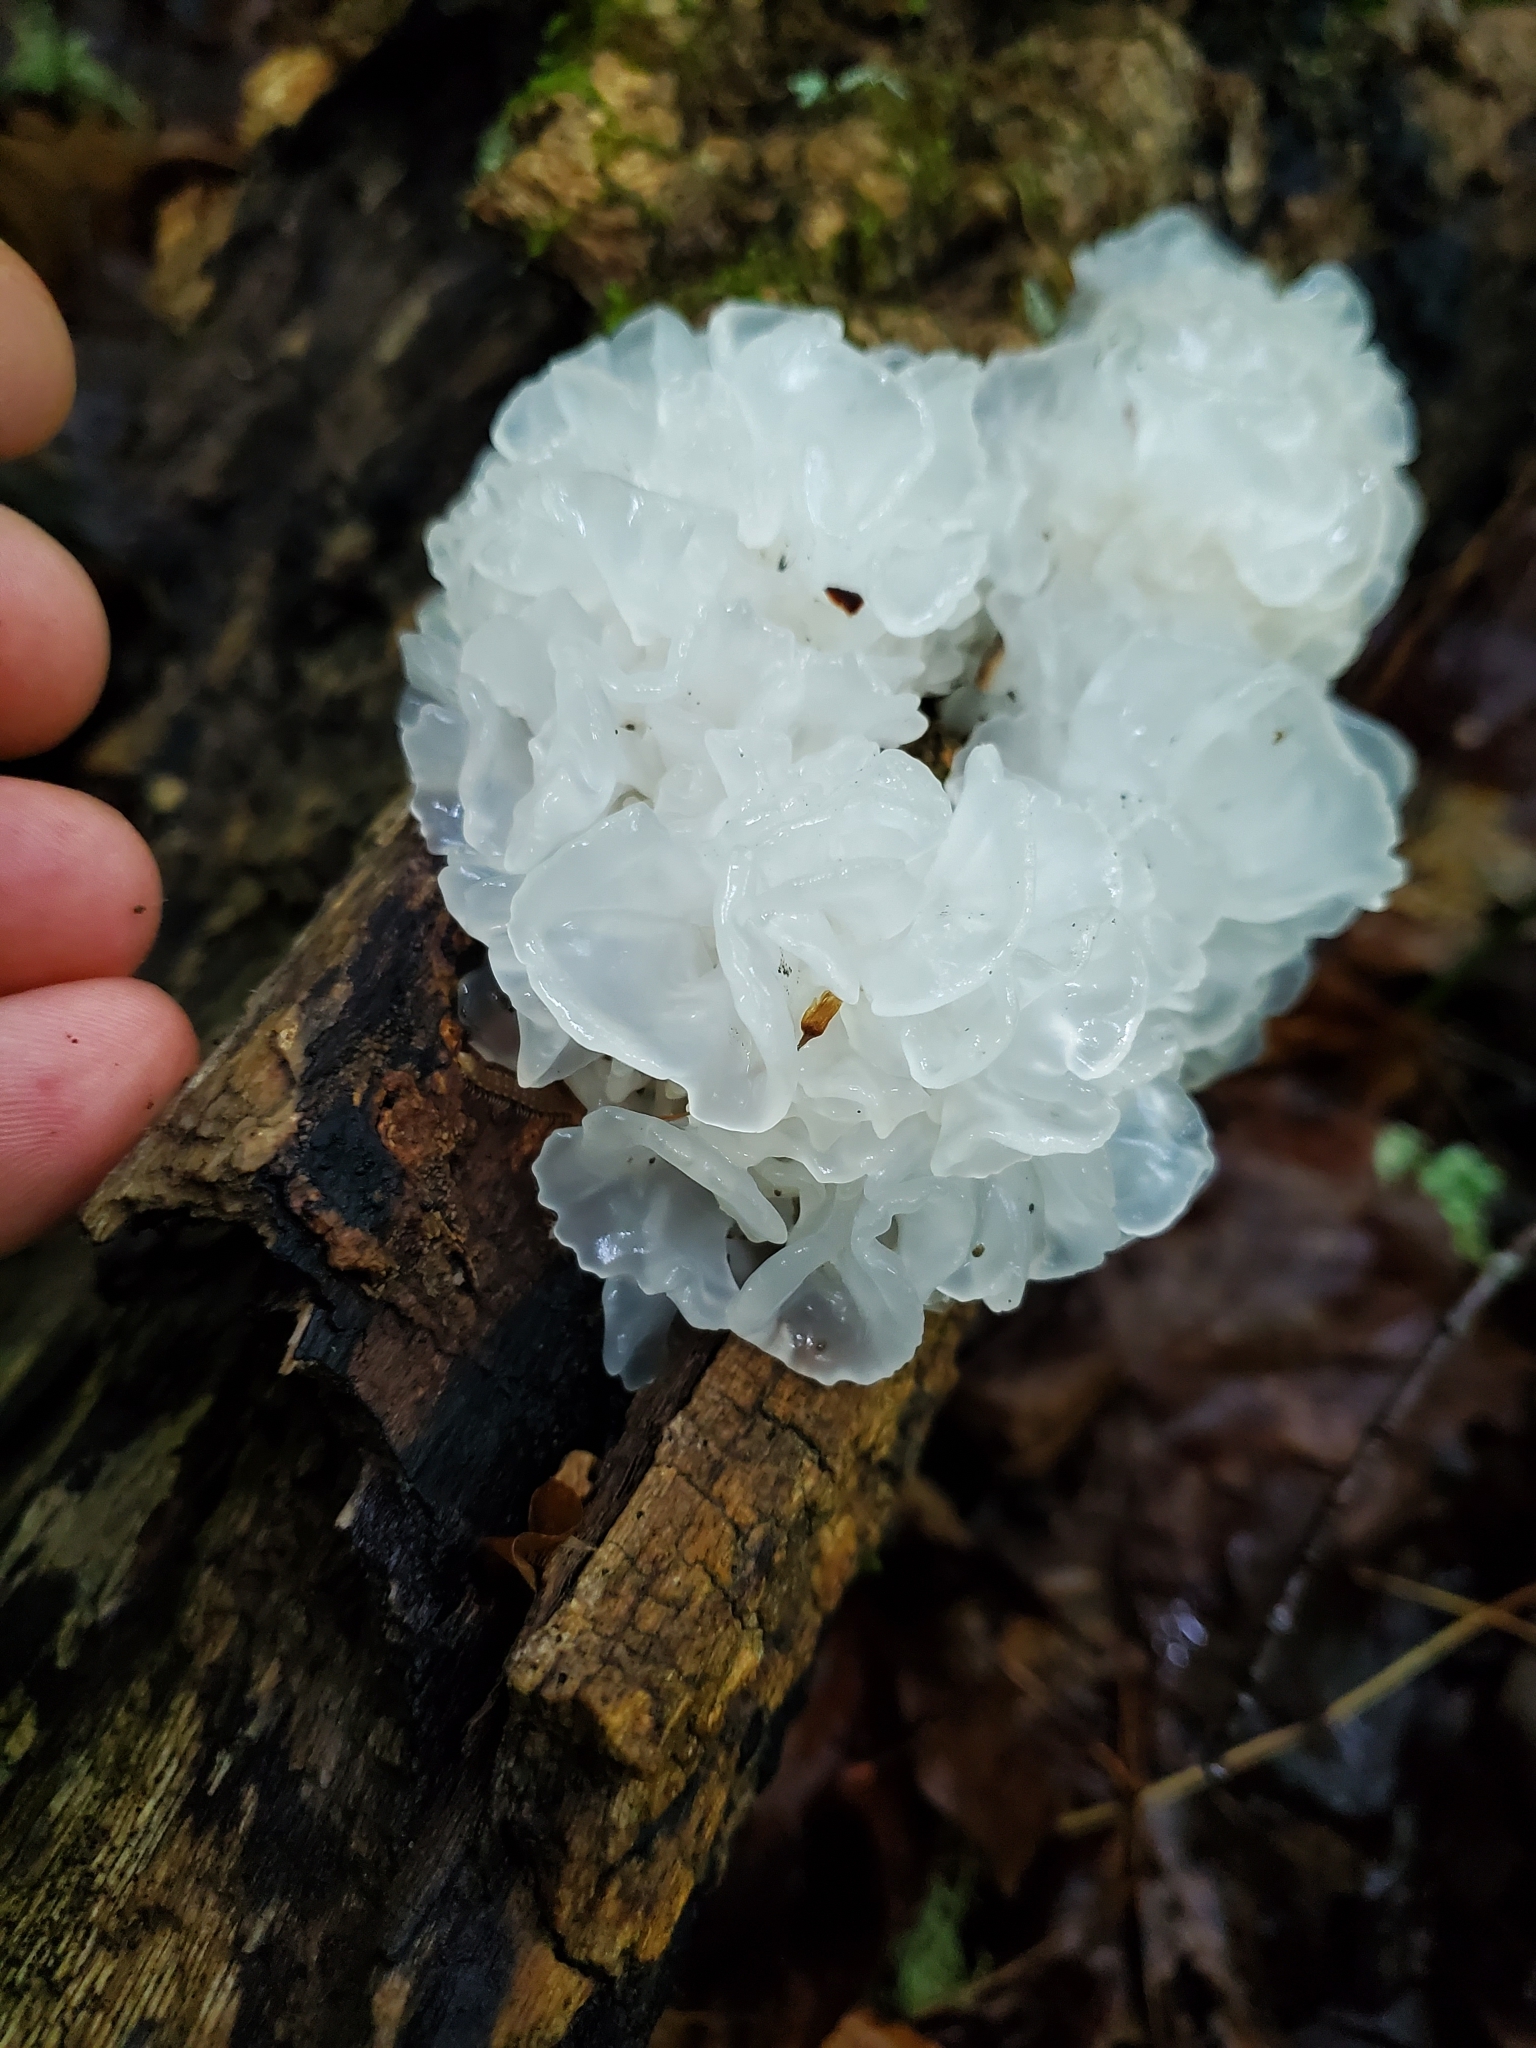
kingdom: Fungi
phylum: Basidiomycota
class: Tremellomycetes
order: Tremellales
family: Tremellaceae
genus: Tremella
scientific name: Tremella fuciformis
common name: Snow fungus
